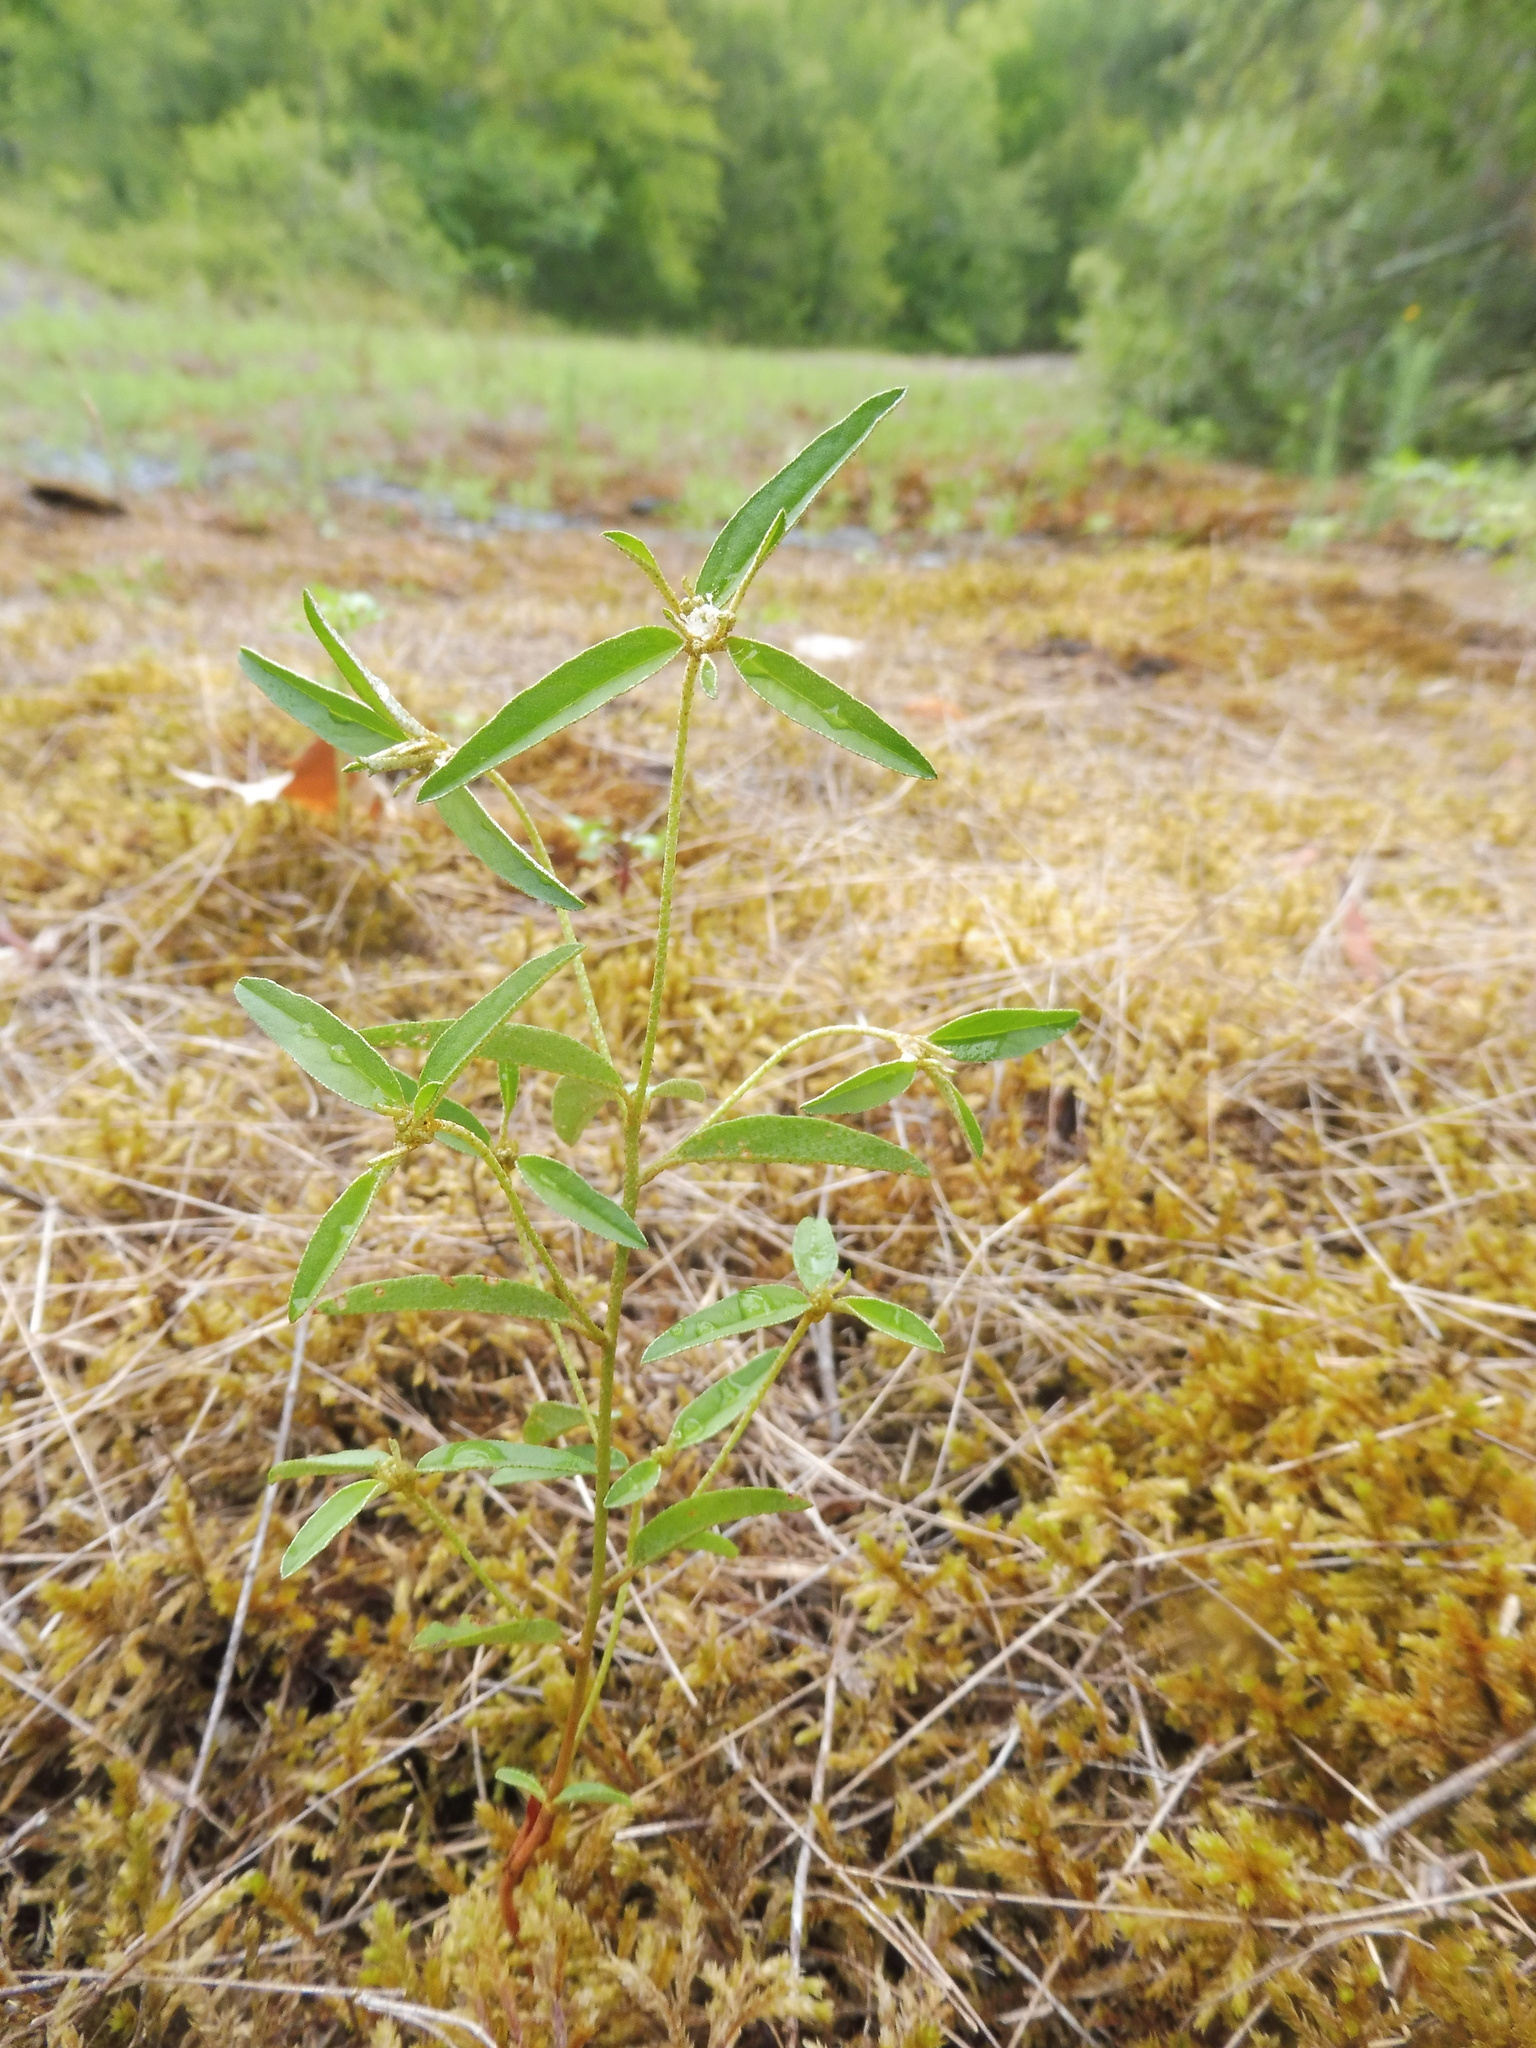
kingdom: Plantae
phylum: Tracheophyta
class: Magnoliopsida
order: Malpighiales
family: Euphorbiaceae
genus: Croton
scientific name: Croton michauxii
